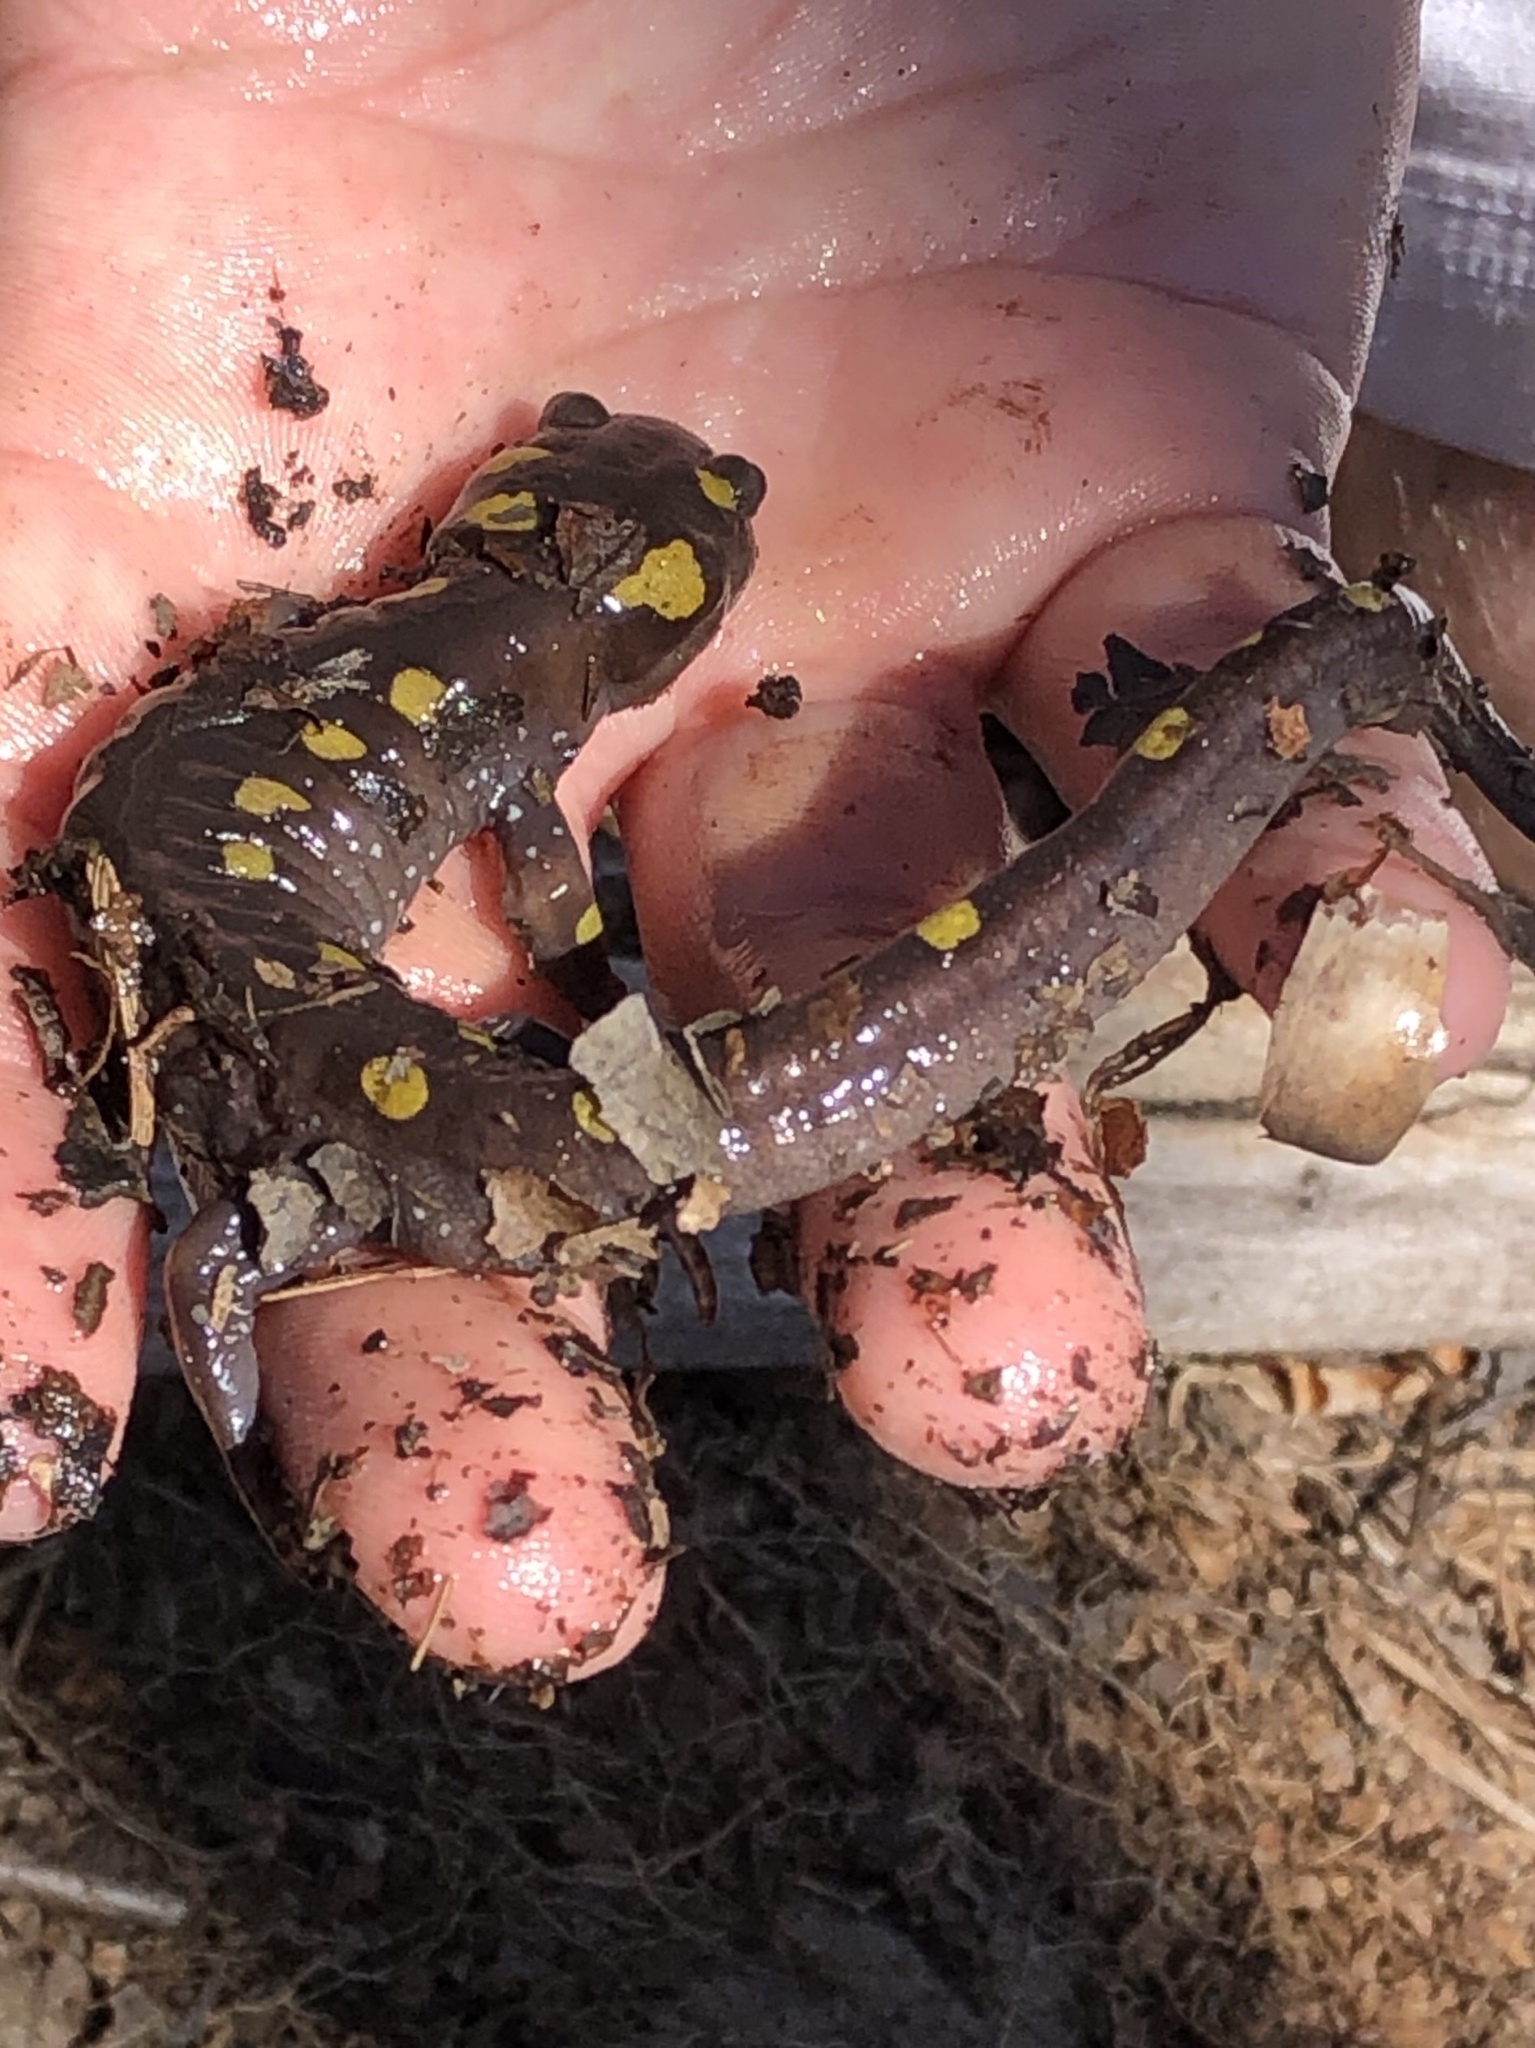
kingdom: Animalia
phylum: Chordata
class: Amphibia
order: Caudata
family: Ambystomatidae
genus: Ambystoma
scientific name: Ambystoma maculatum
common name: Spotted salamander
